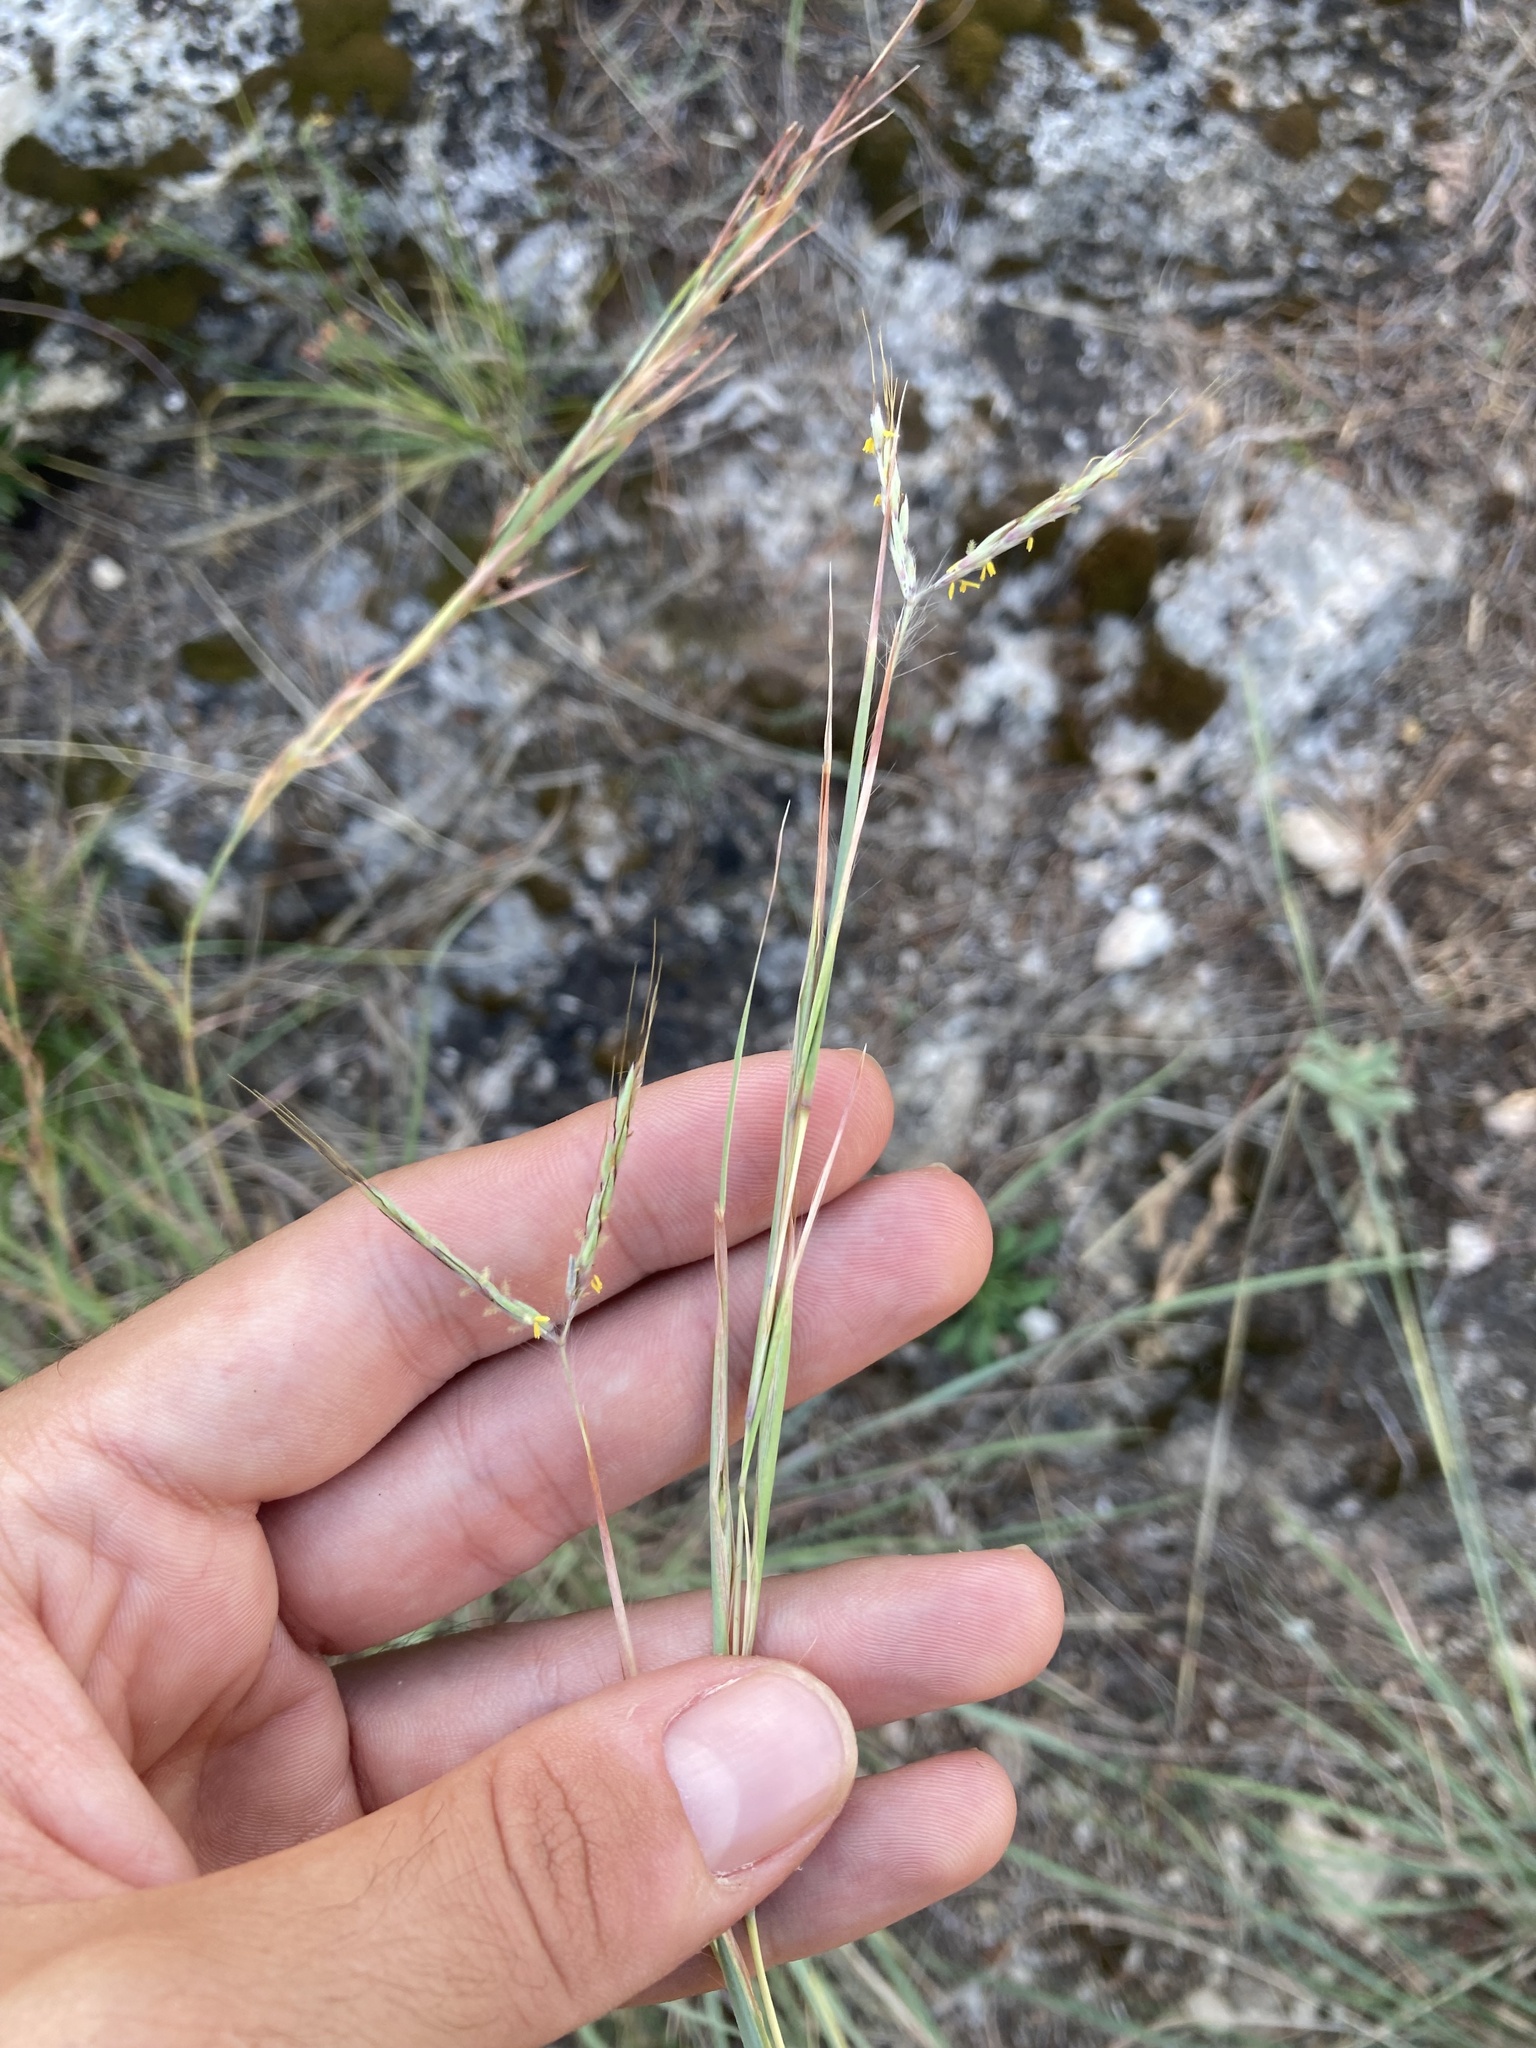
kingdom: Plantae
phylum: Tracheophyta
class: Liliopsida
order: Poales
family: Poaceae
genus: Hyparrhenia
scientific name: Hyparrhenia hirta
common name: Thatching grass
